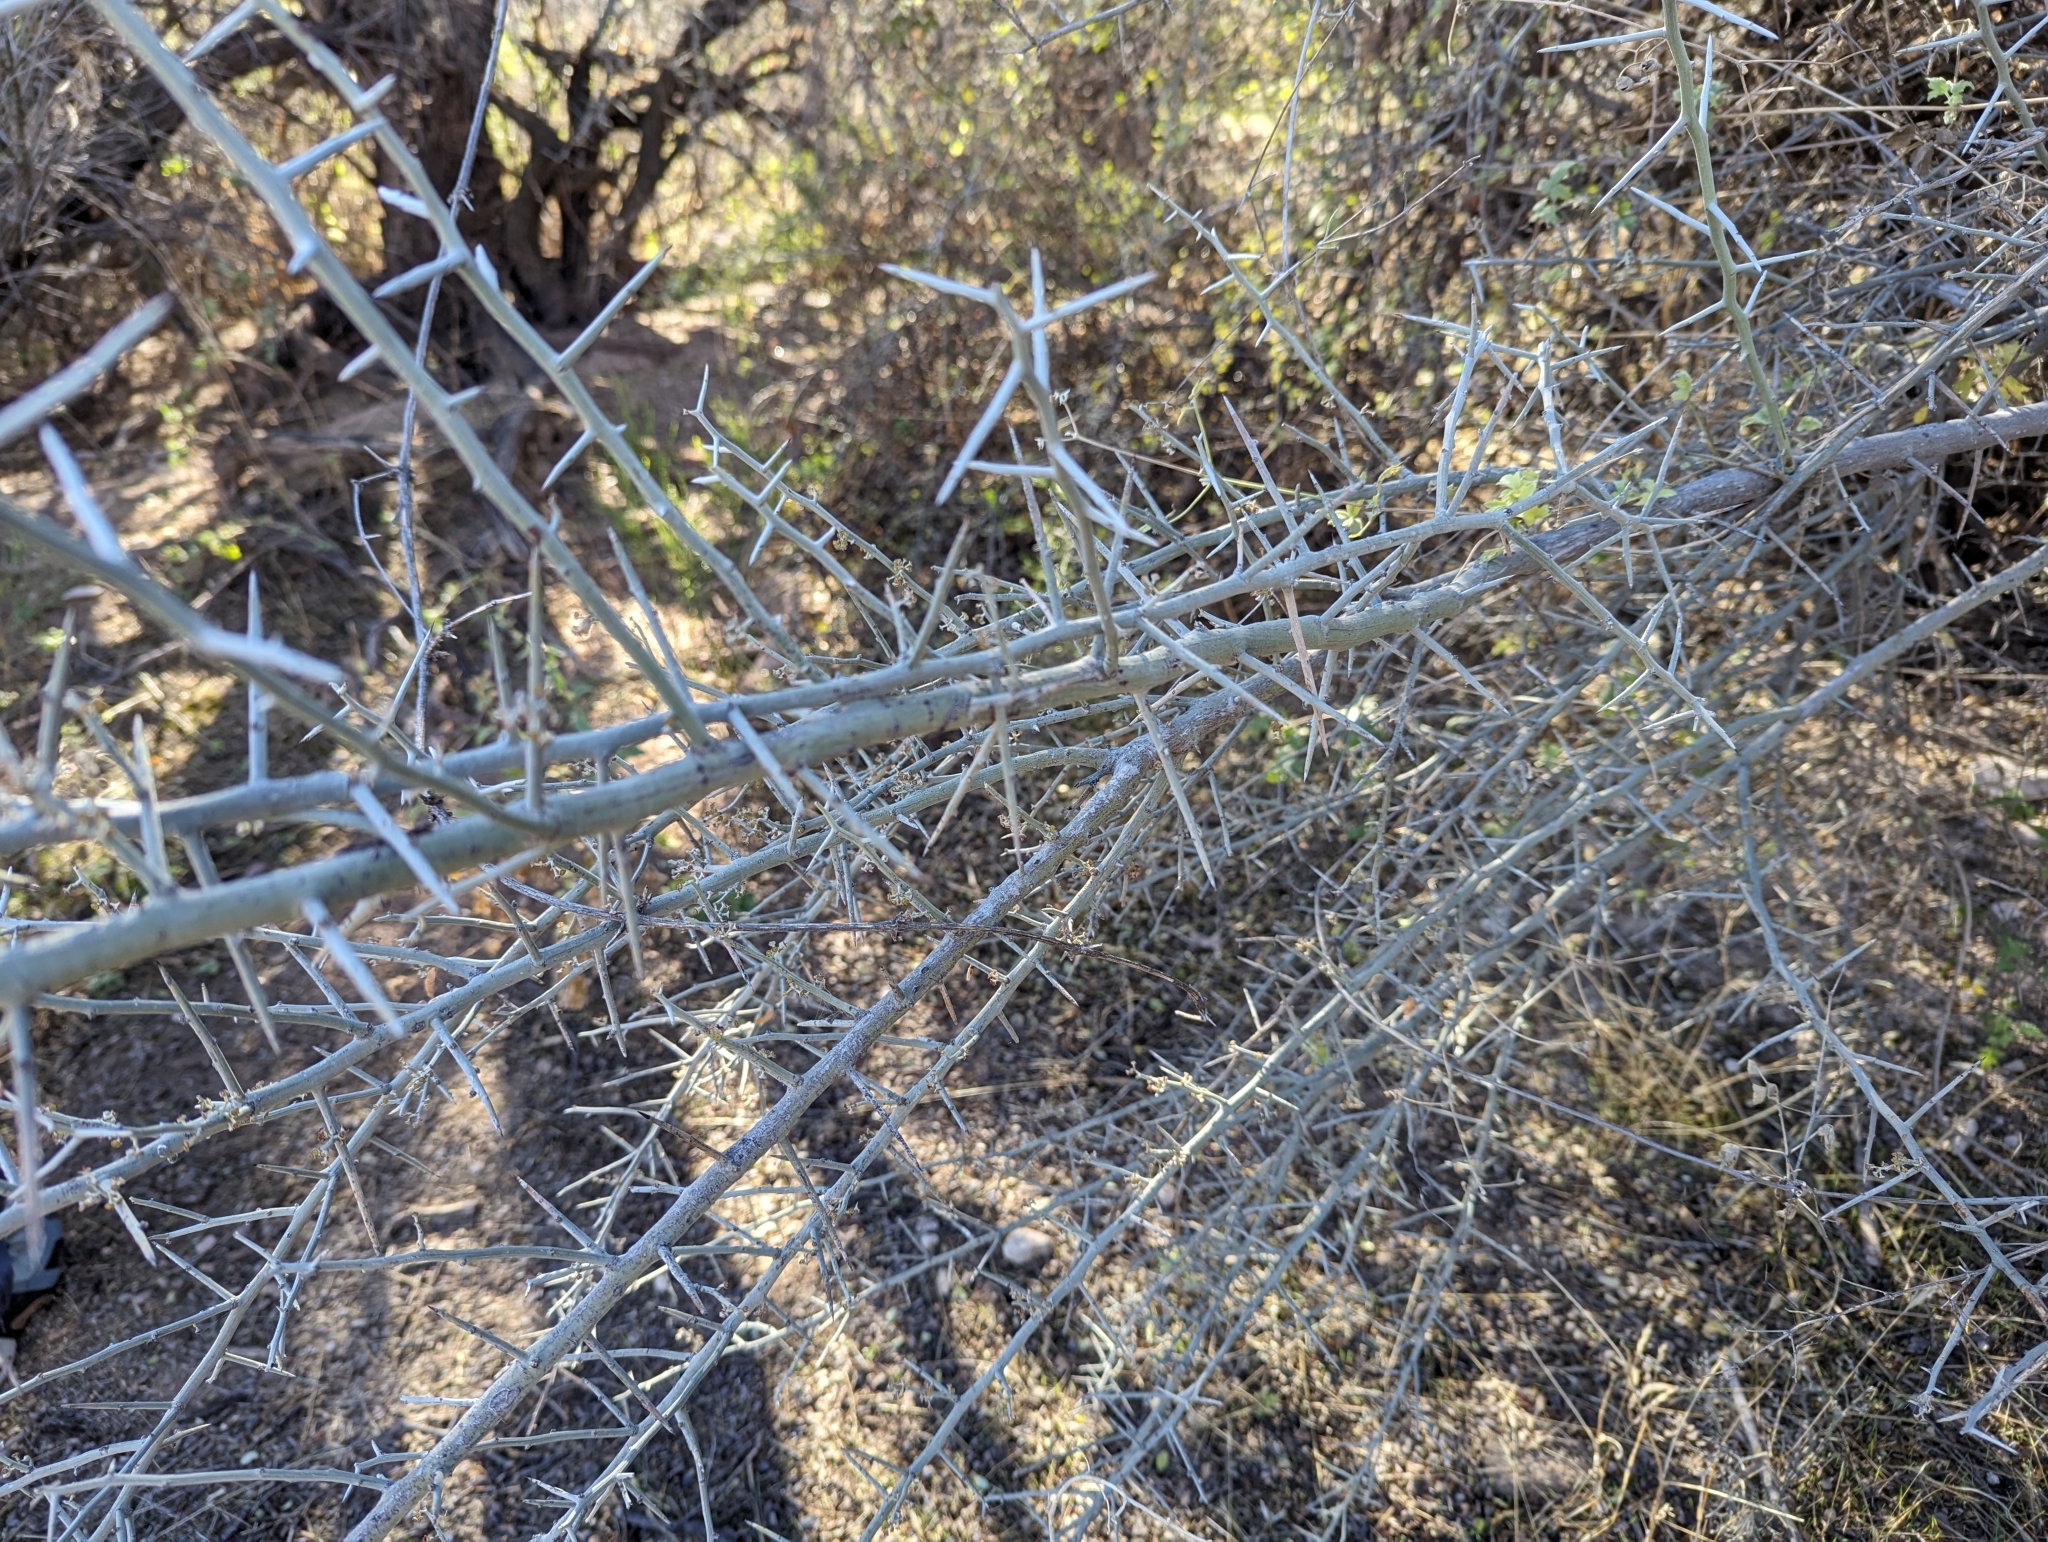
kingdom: Plantae
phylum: Tracheophyta
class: Magnoliopsida
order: Rosales
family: Rhamnaceae
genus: Sarcomphalus
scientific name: Sarcomphalus obtusifolius
